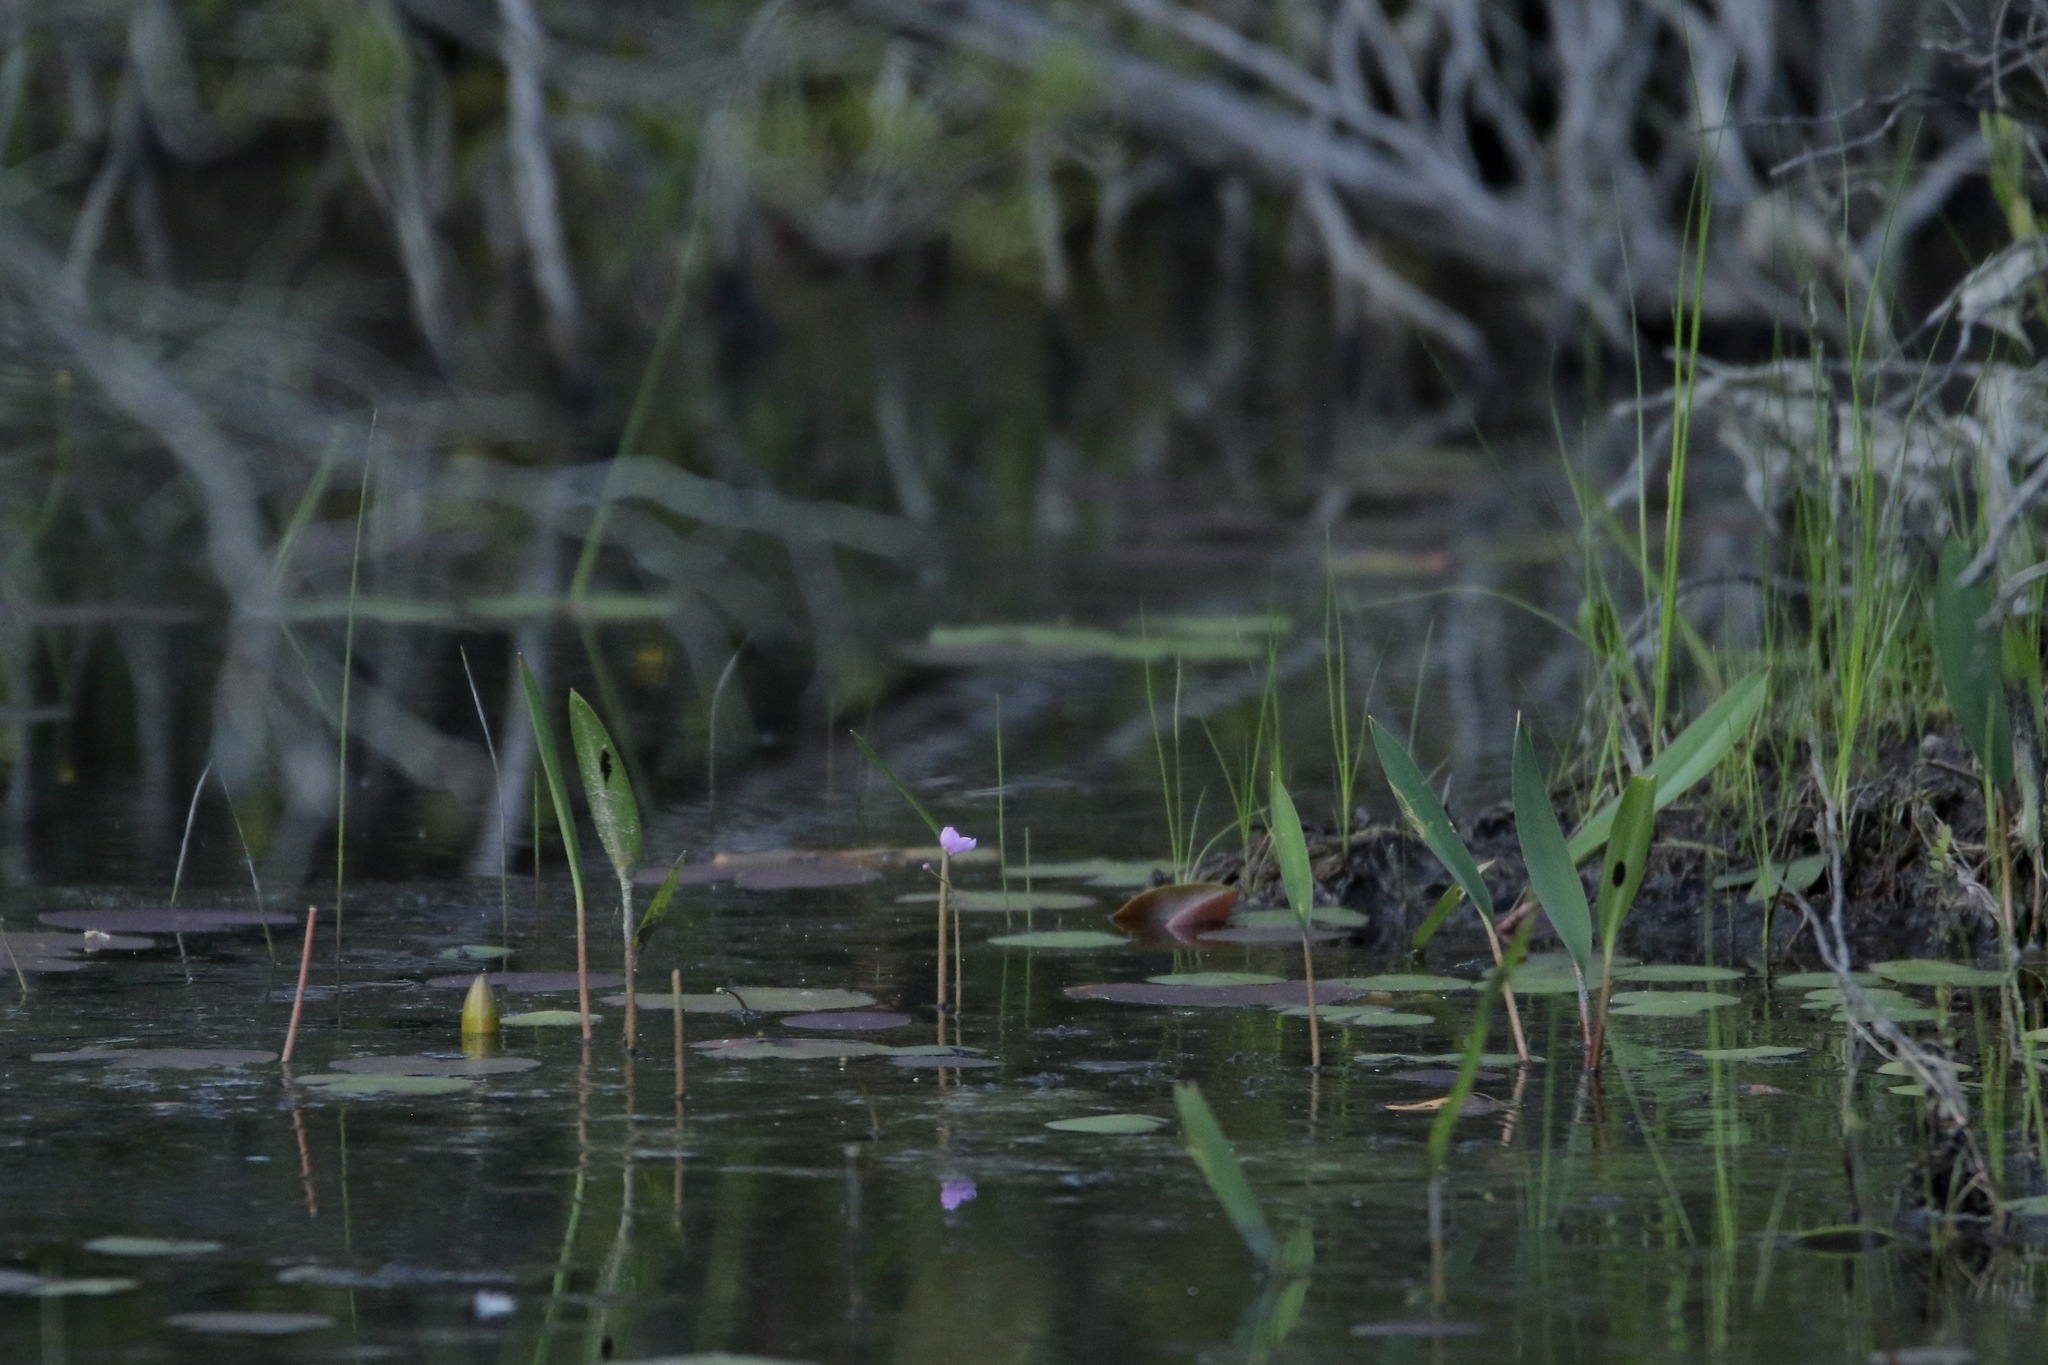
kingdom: Plantae
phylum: Tracheophyta
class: Magnoliopsida
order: Lamiales
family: Lentibulariaceae
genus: Utricularia
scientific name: Utricularia purpurea
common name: Eastern purple bladderwort
